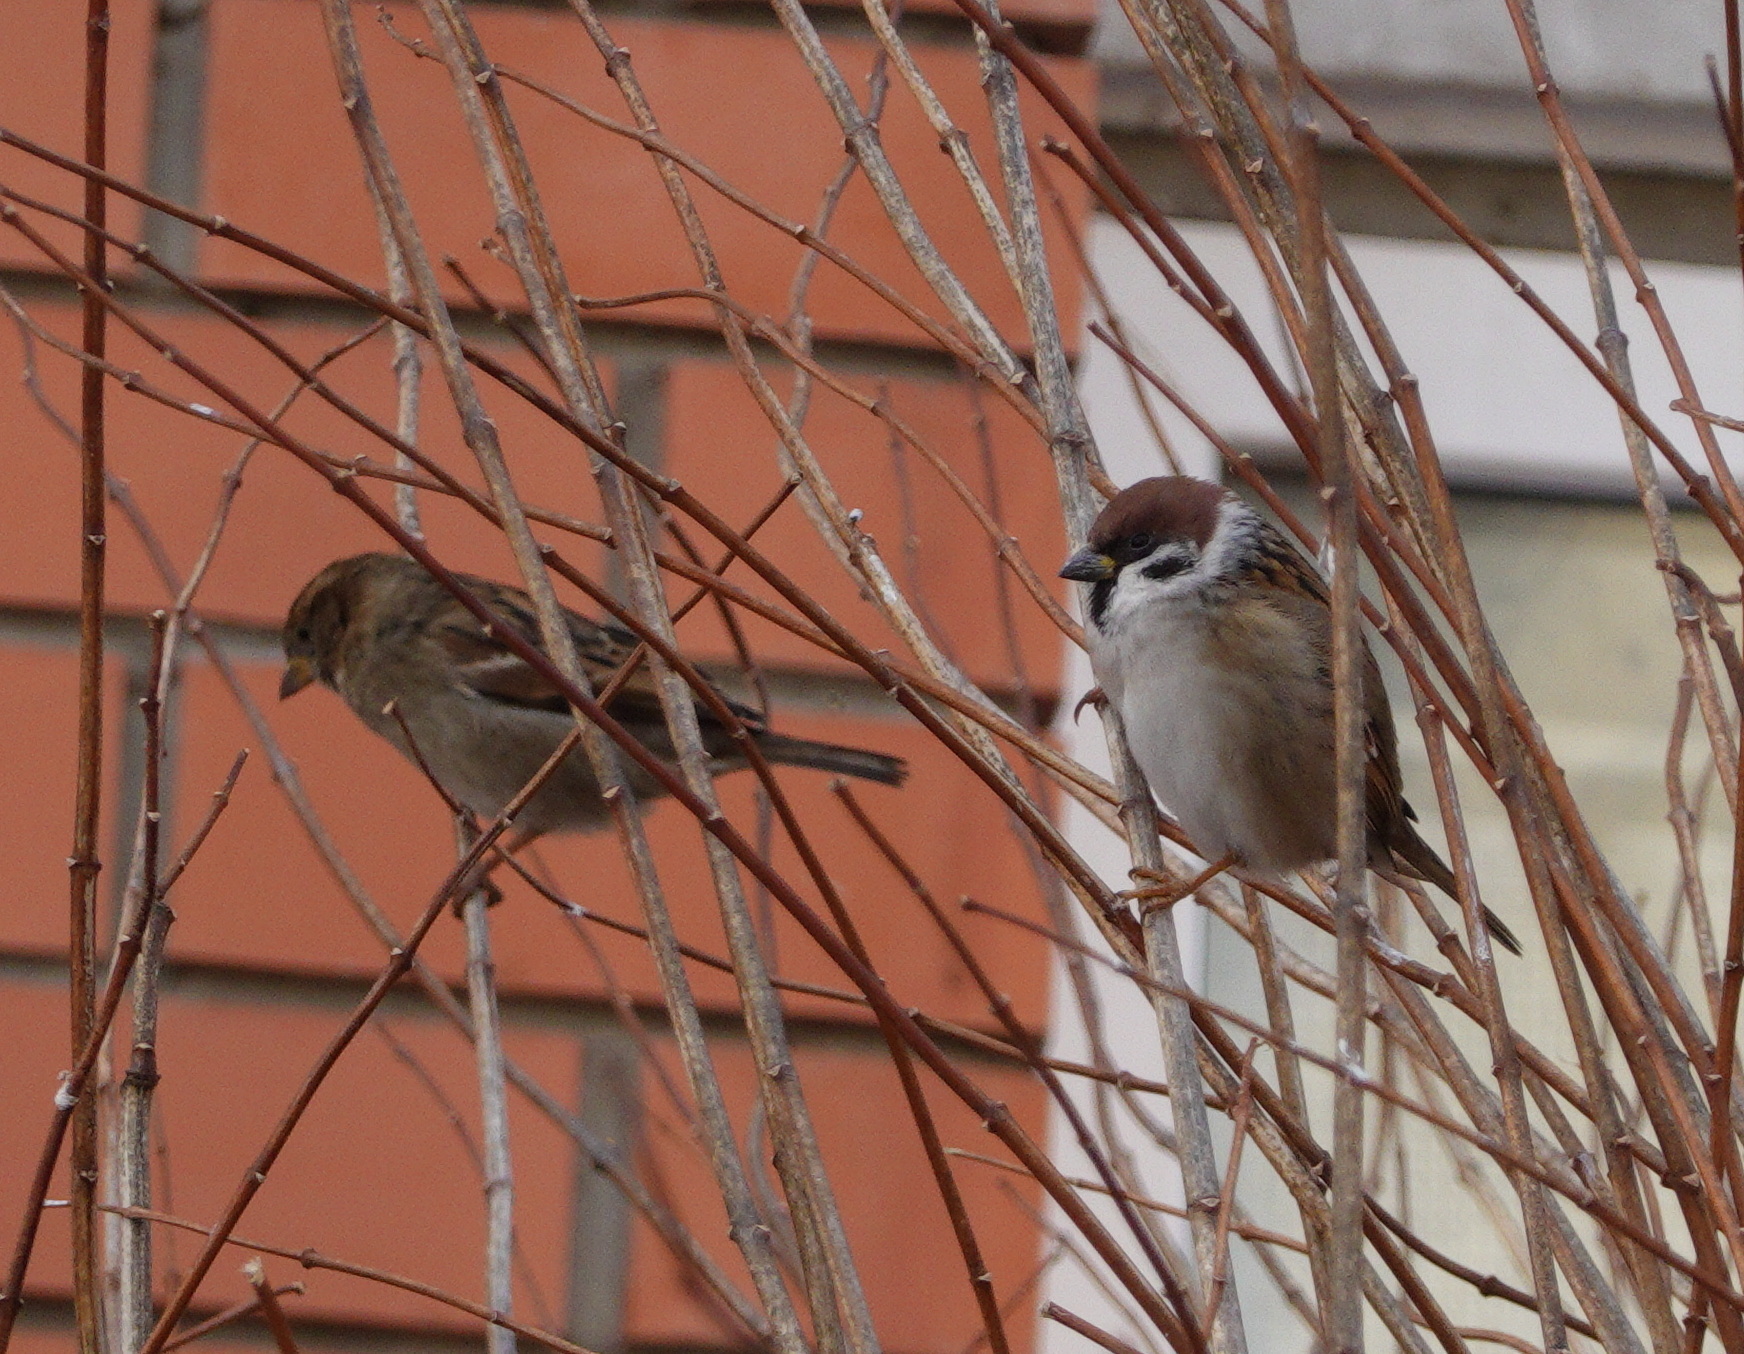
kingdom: Animalia
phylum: Chordata
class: Aves
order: Passeriformes
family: Passeridae
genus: Passer
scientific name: Passer domesticus
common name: House sparrow
